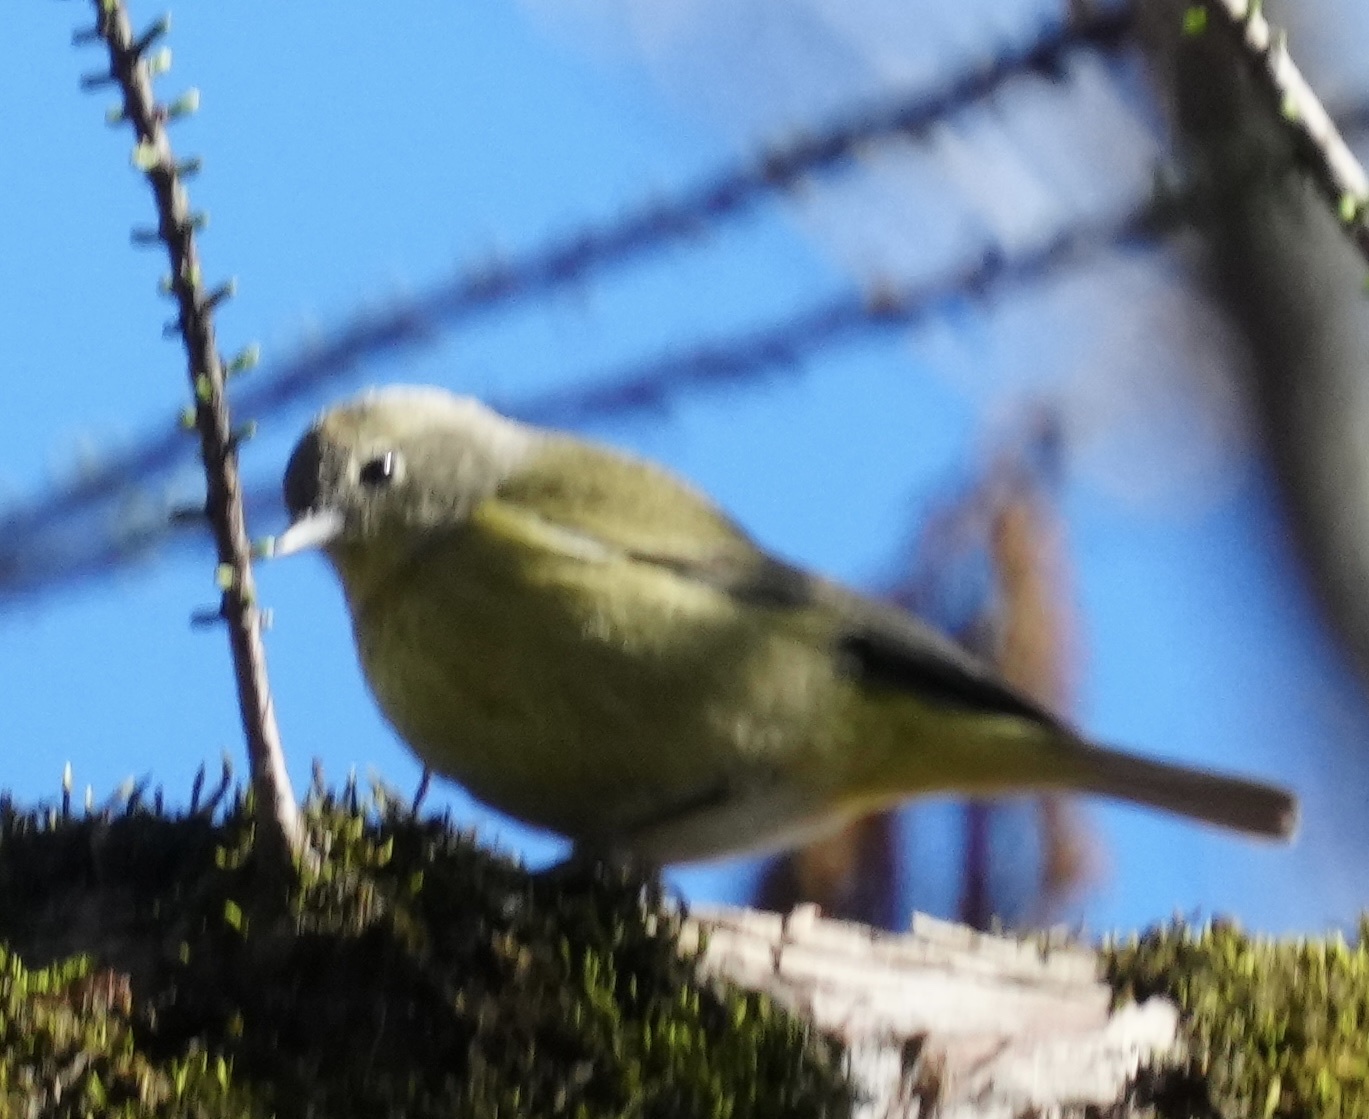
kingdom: Animalia
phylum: Chordata
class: Aves
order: Passeriformes
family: Parulidae
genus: Leiothlypis
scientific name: Leiothlypis celata
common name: Orange-crowned warbler
